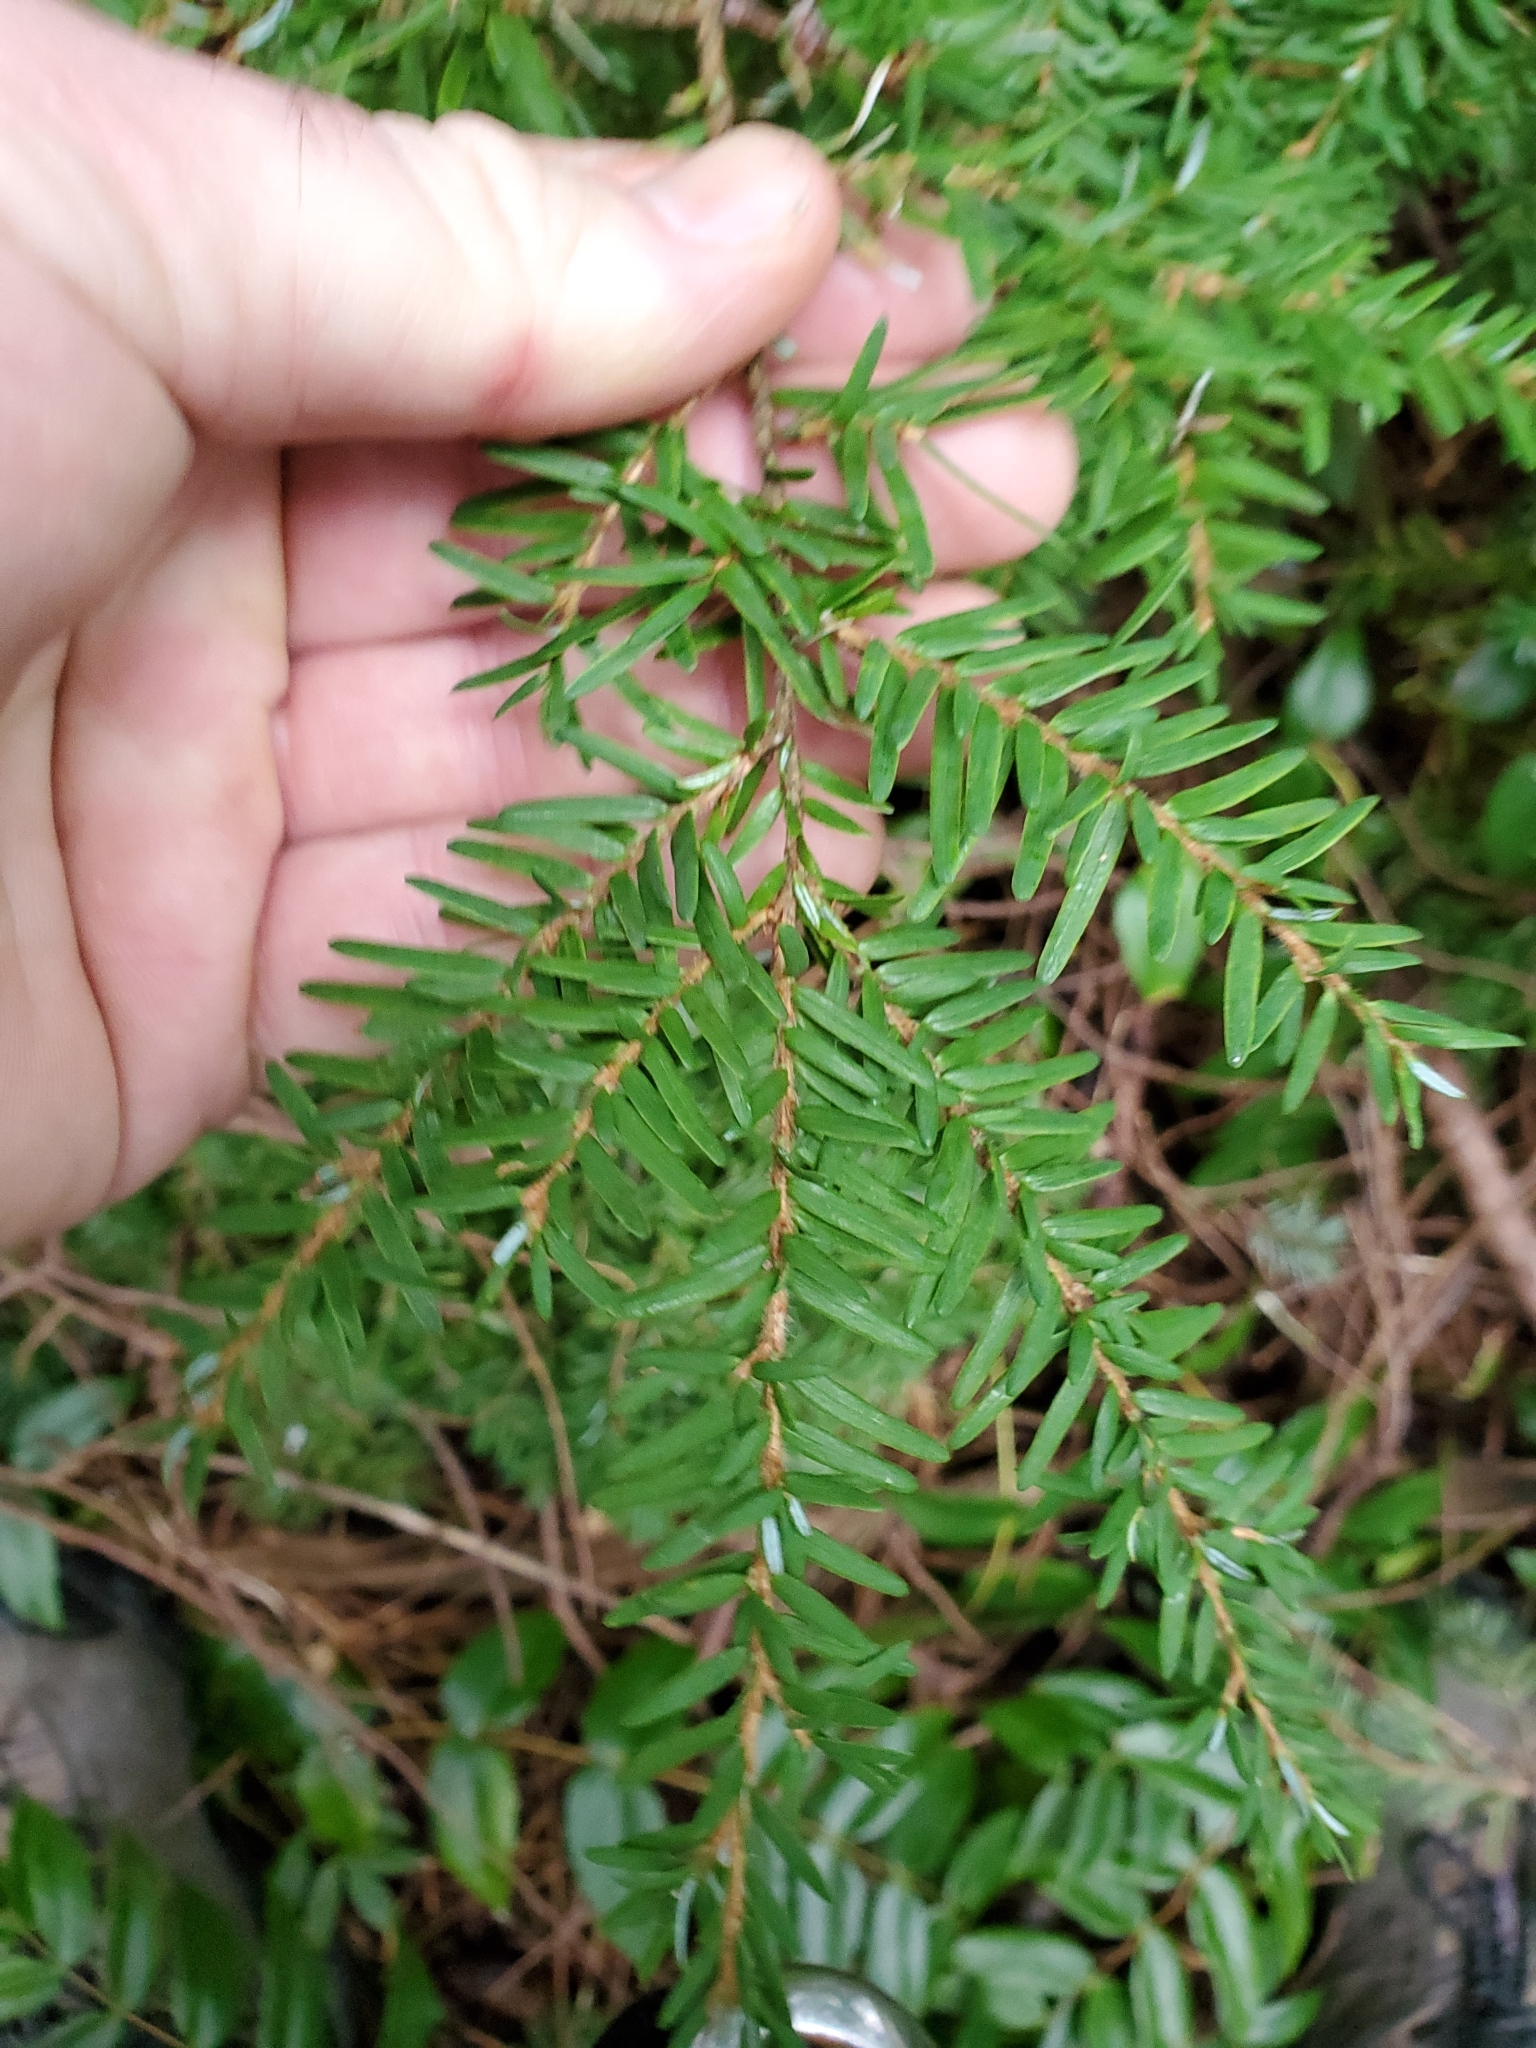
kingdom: Plantae
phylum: Tracheophyta
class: Pinopsida
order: Pinales
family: Pinaceae
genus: Tsuga
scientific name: Tsuga heterophylla
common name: Western hemlock
